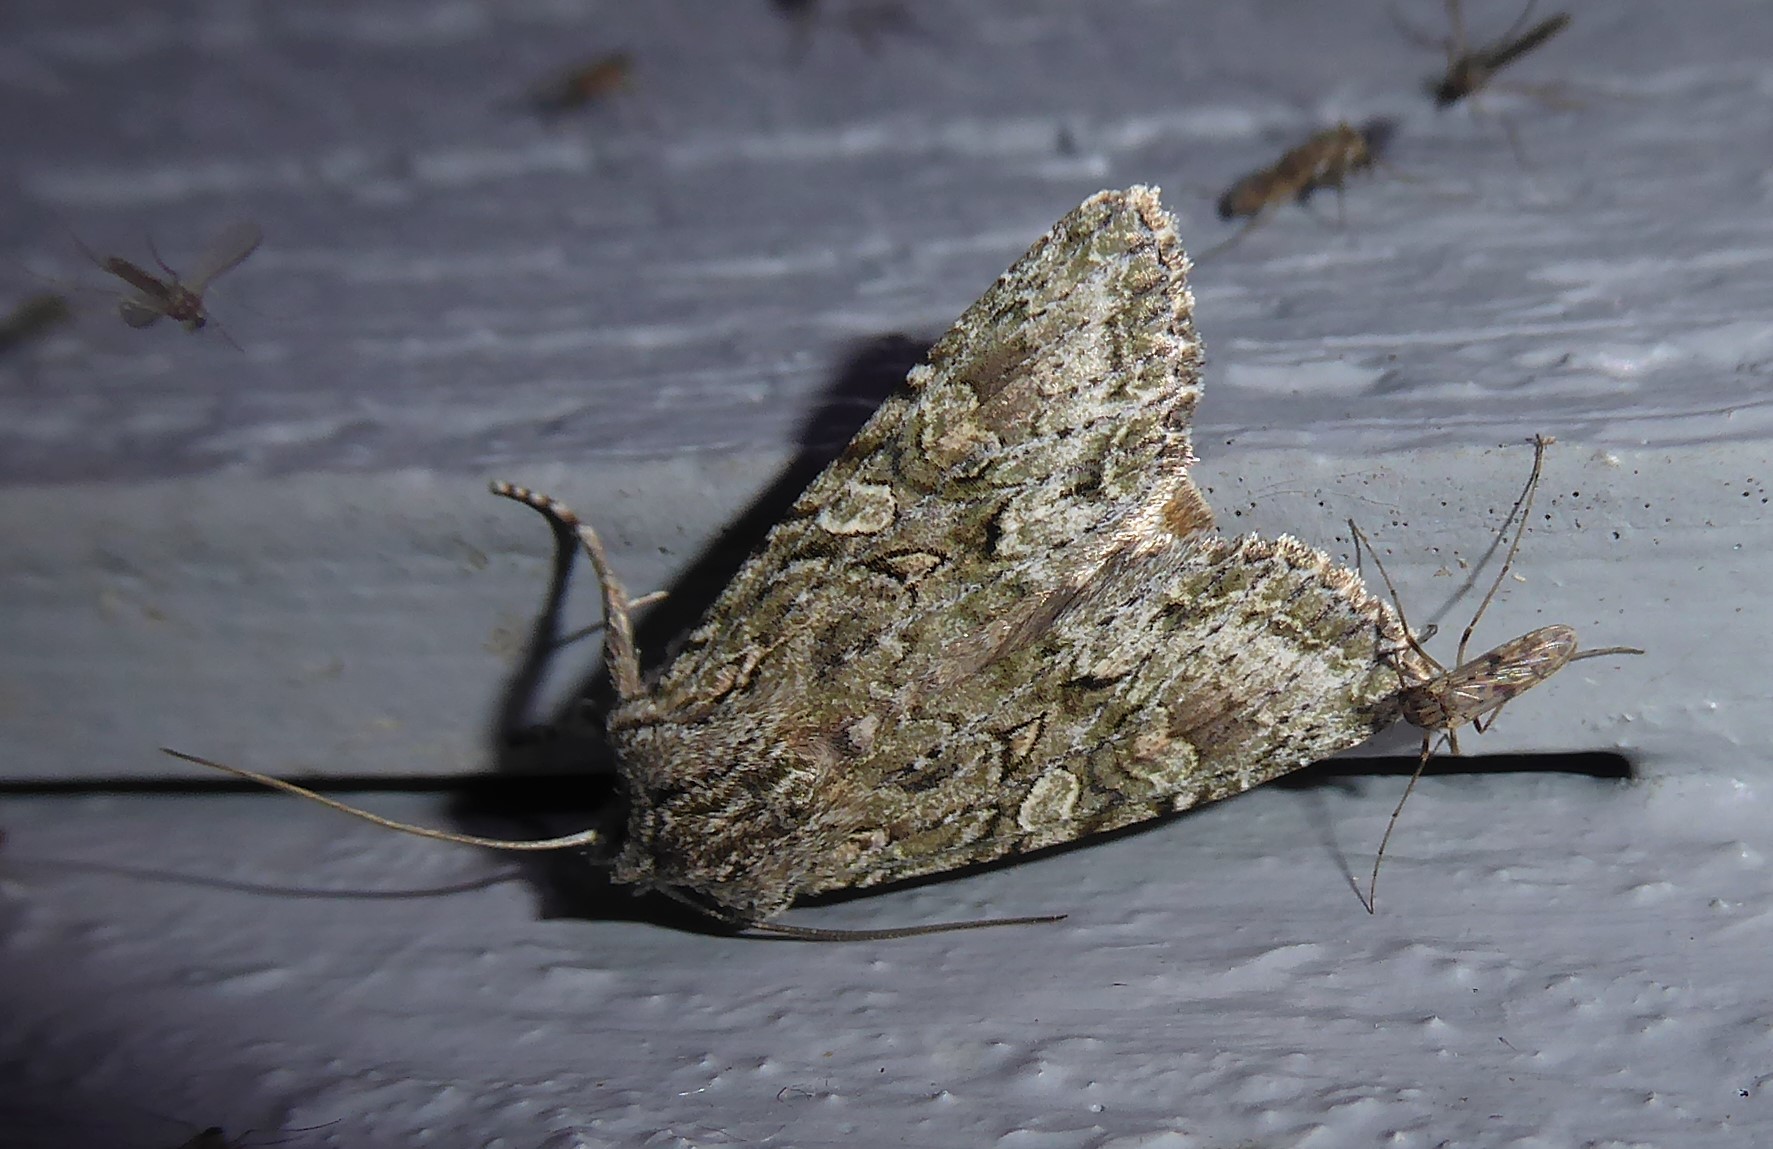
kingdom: Animalia
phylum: Arthropoda
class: Insecta
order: Lepidoptera
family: Noctuidae
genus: Ichneutica
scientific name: Ichneutica mutans
